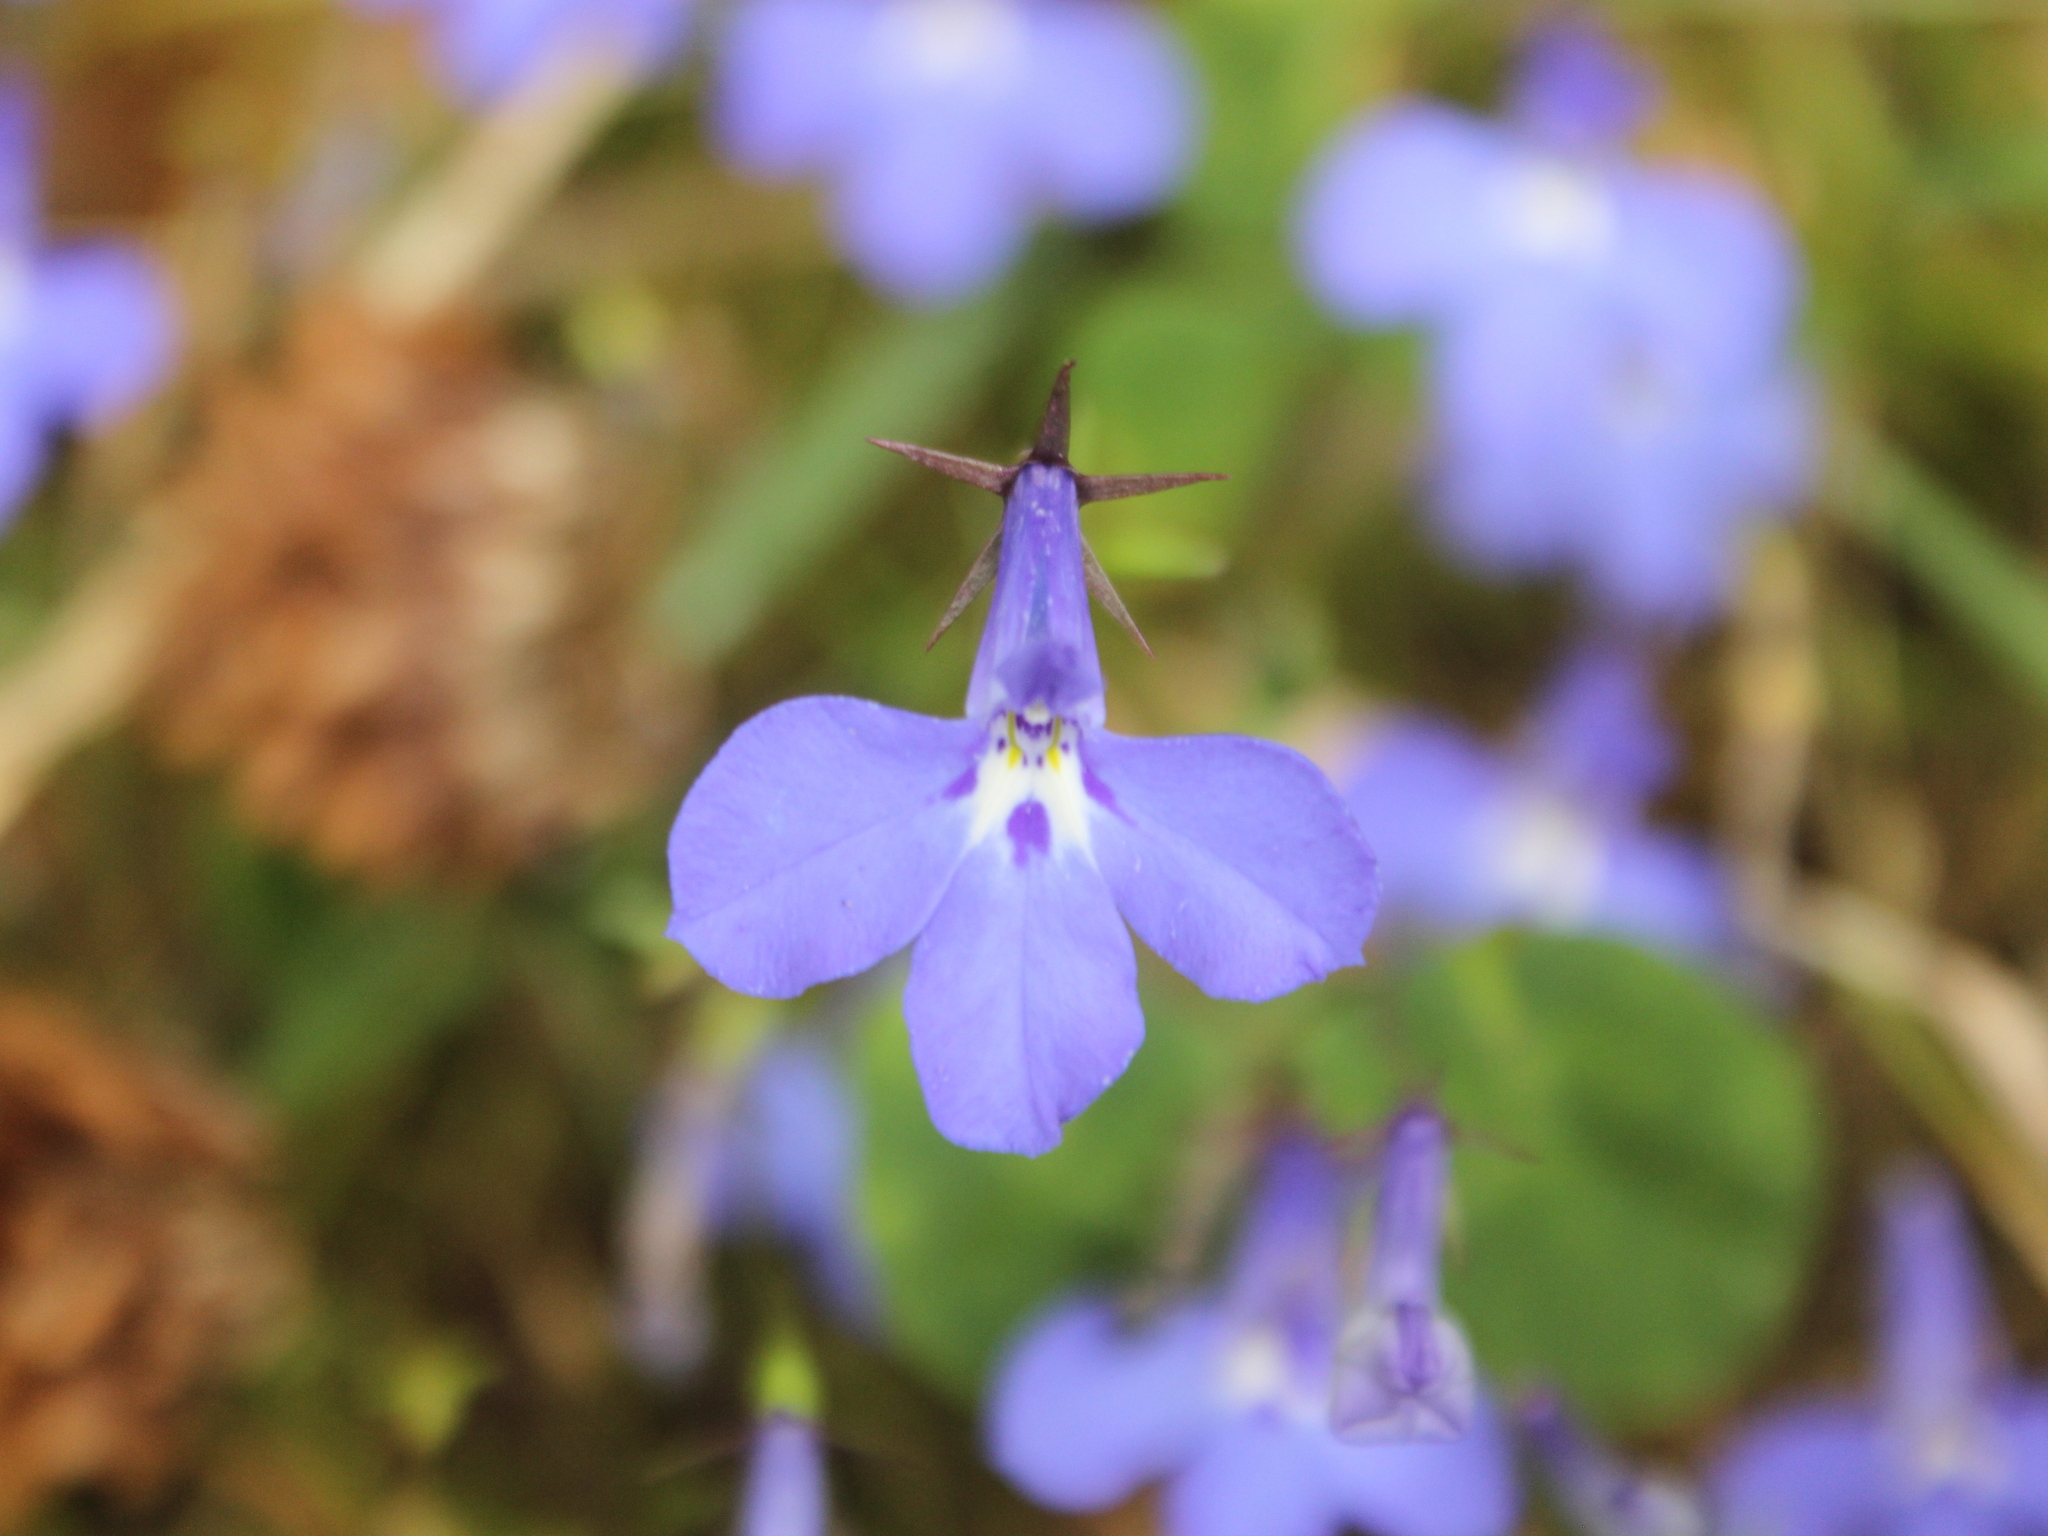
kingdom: Plantae
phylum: Tracheophyta
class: Magnoliopsida
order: Asterales
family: Campanulaceae
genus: Lobelia
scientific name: Lobelia erinus
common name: Edging lobelia
